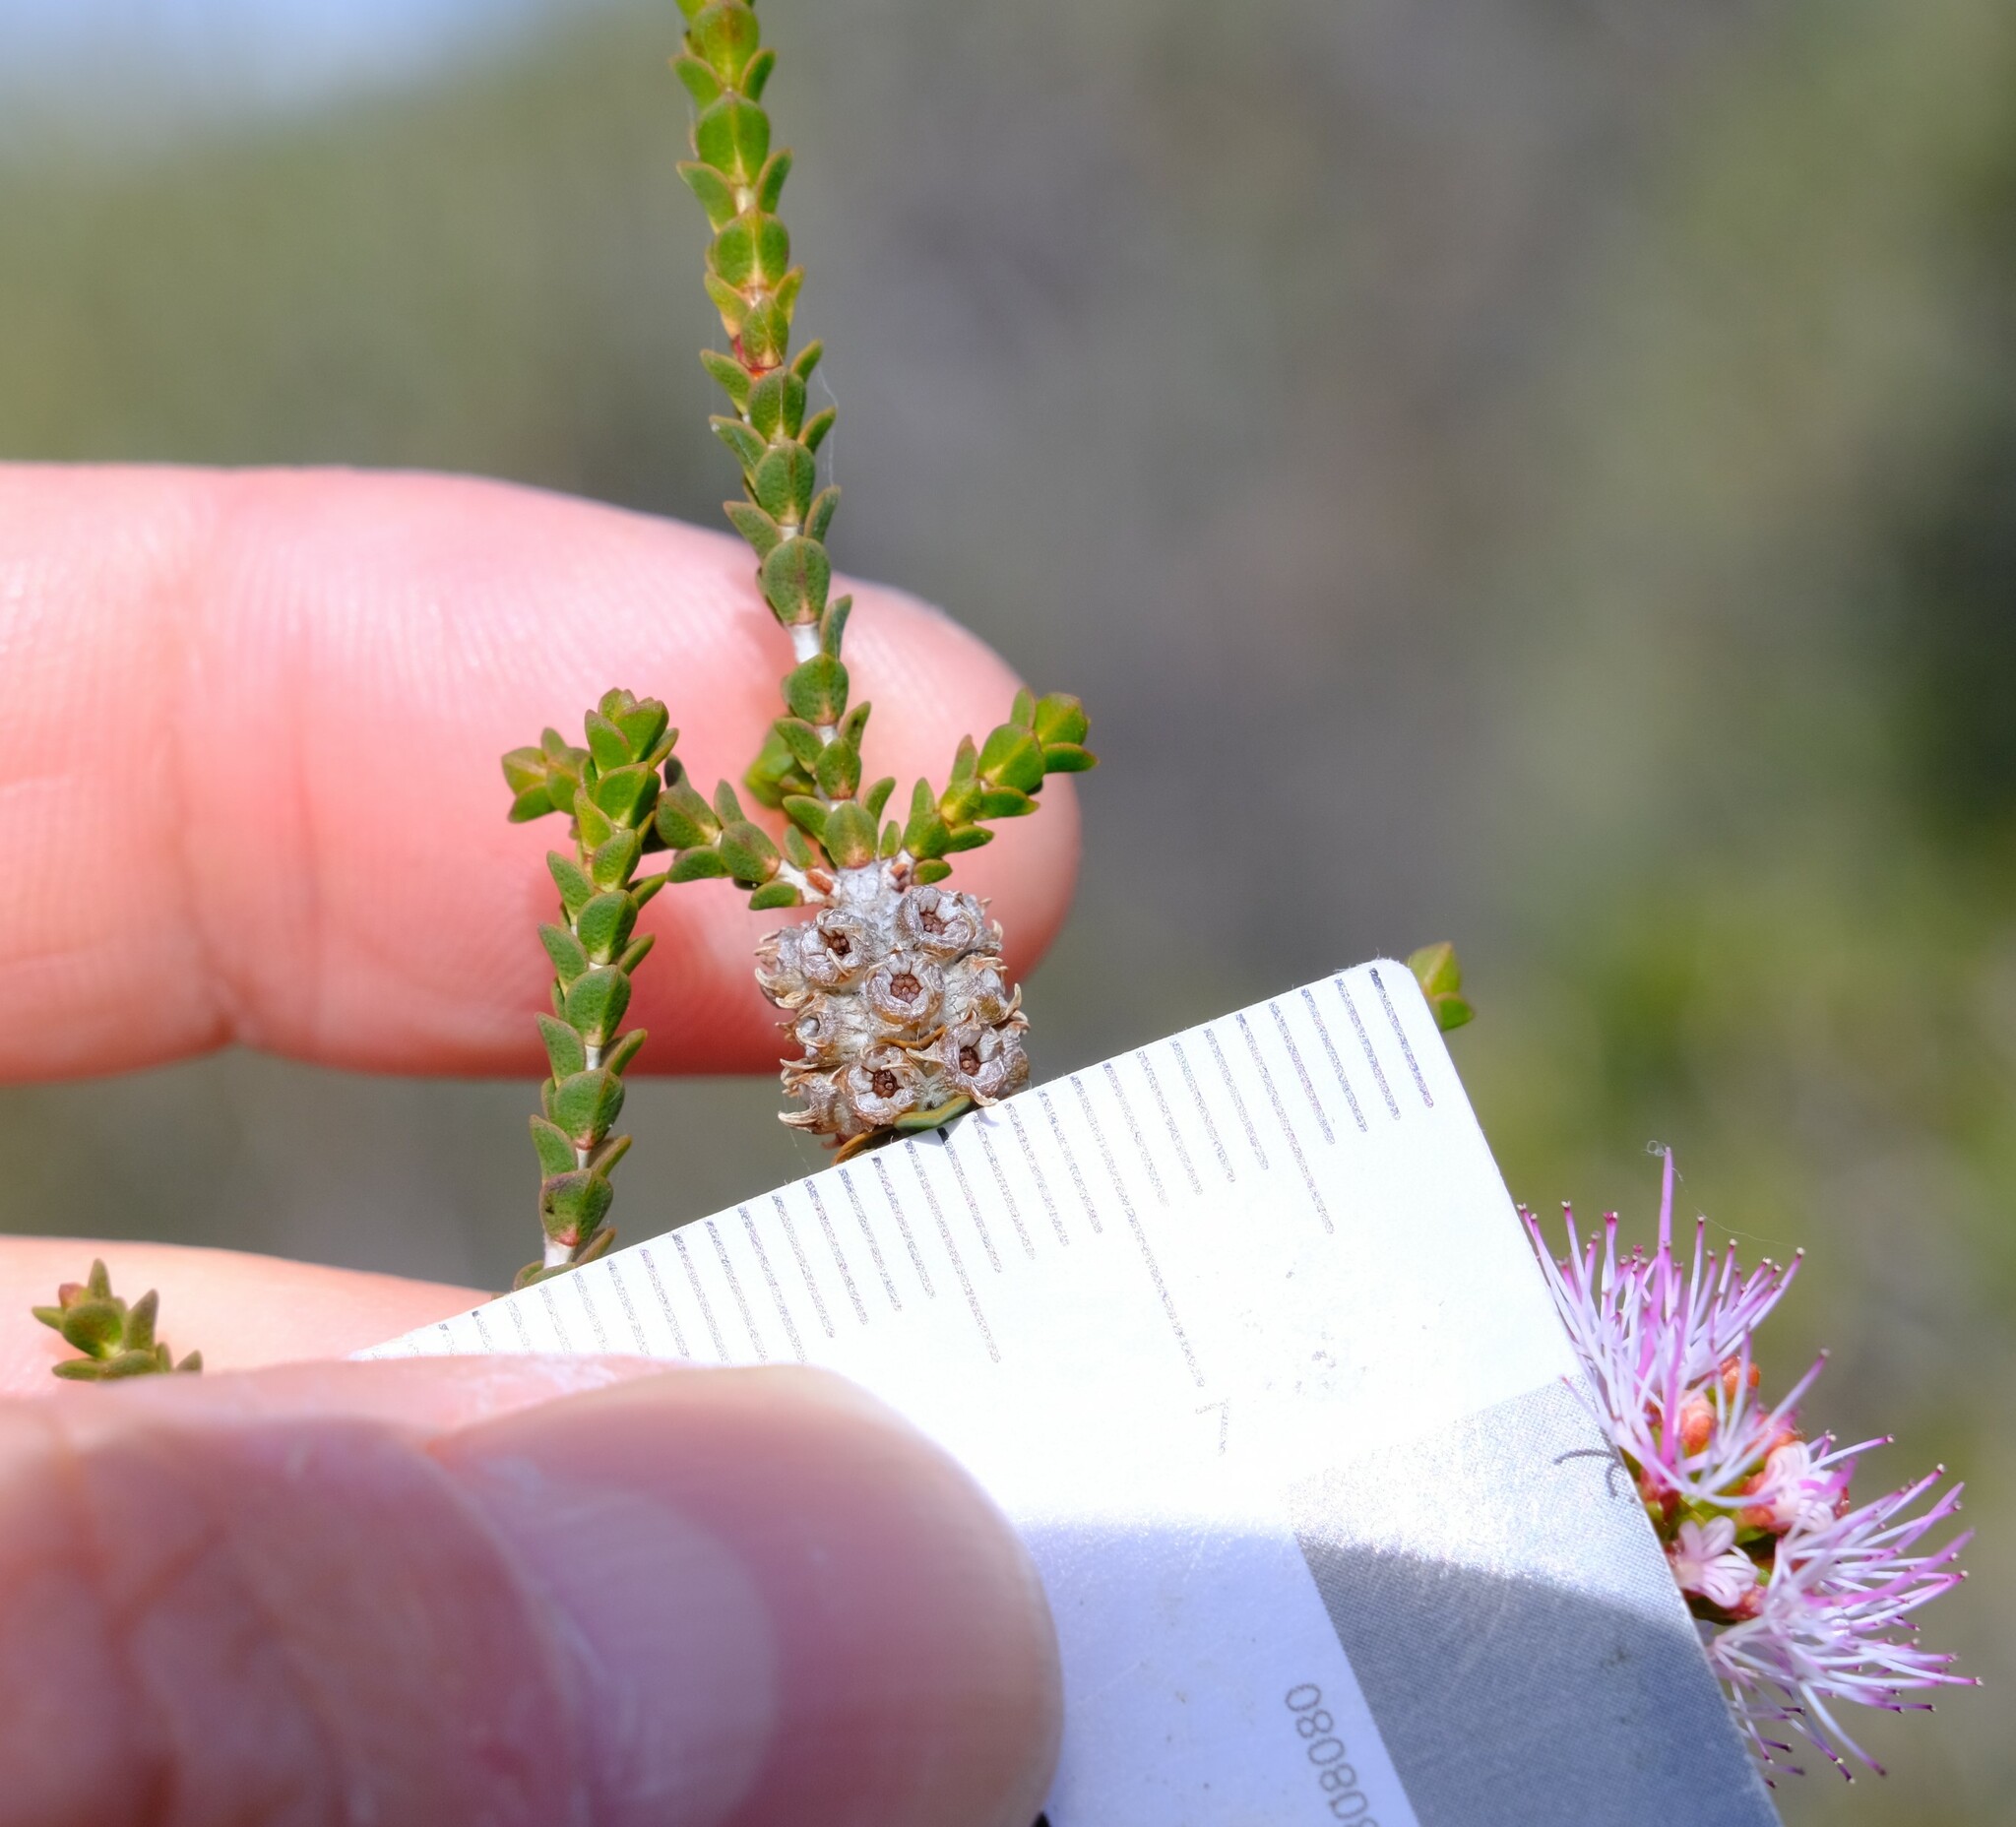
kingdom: Plantae
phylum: Tracheophyta
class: Magnoliopsida
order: Myrtales
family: Myrtaceae
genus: Melaleuca
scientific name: Melaleuca scitula
